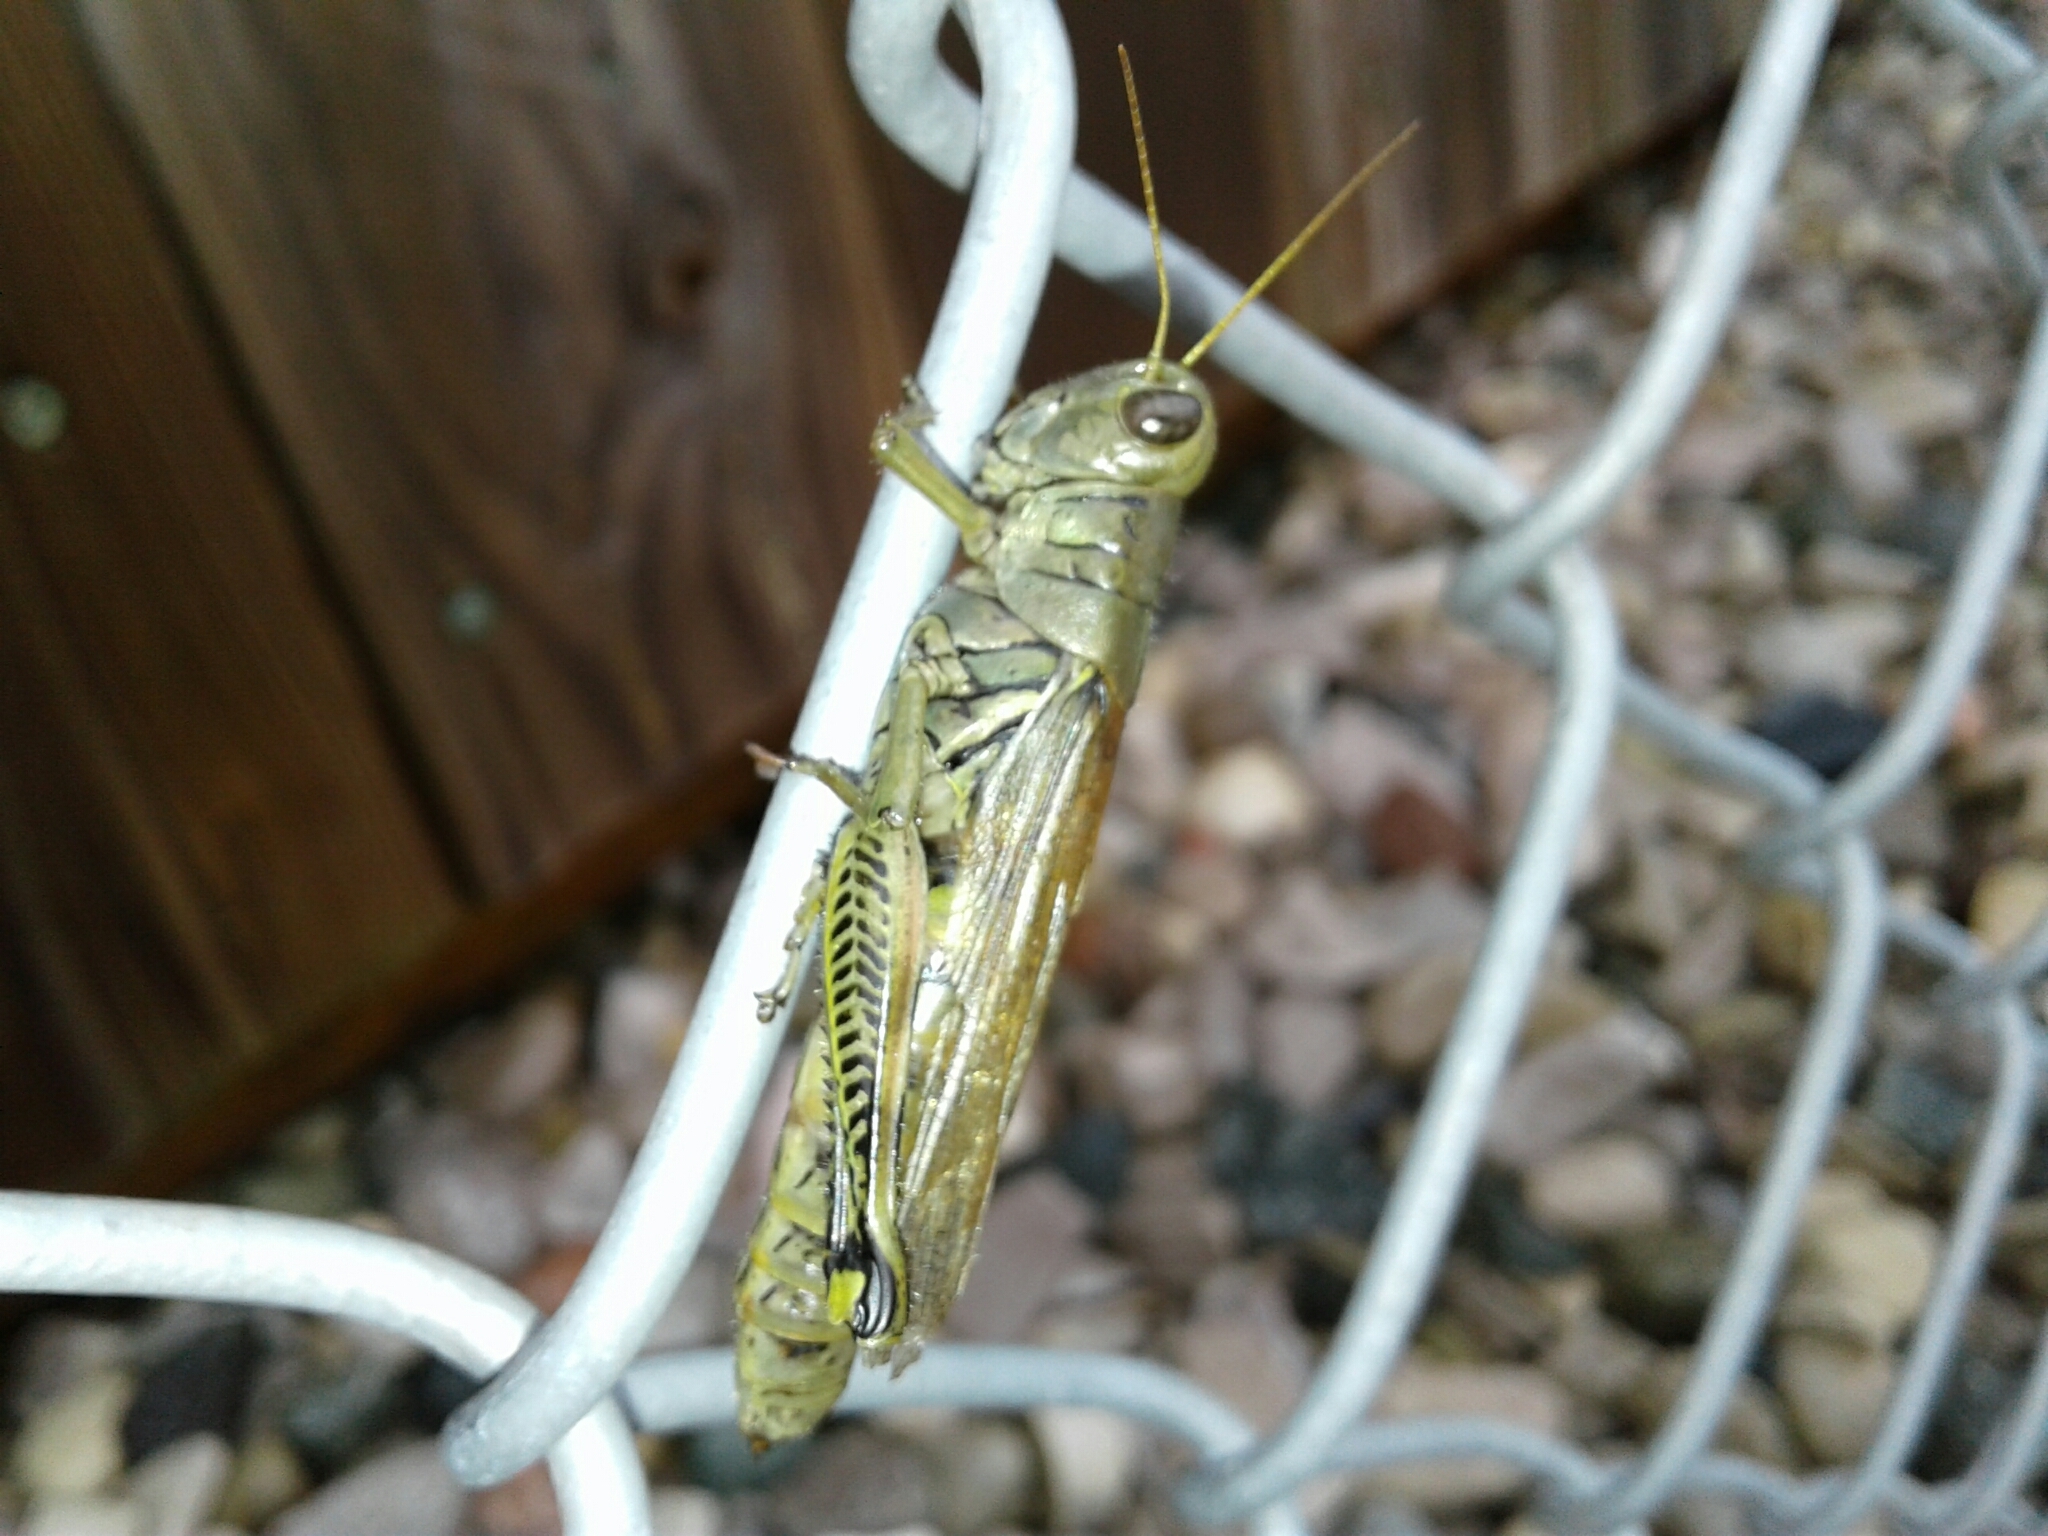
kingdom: Animalia
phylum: Arthropoda
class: Insecta
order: Orthoptera
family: Acrididae
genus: Melanoplus
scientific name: Melanoplus differentialis
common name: Differential grasshopper
